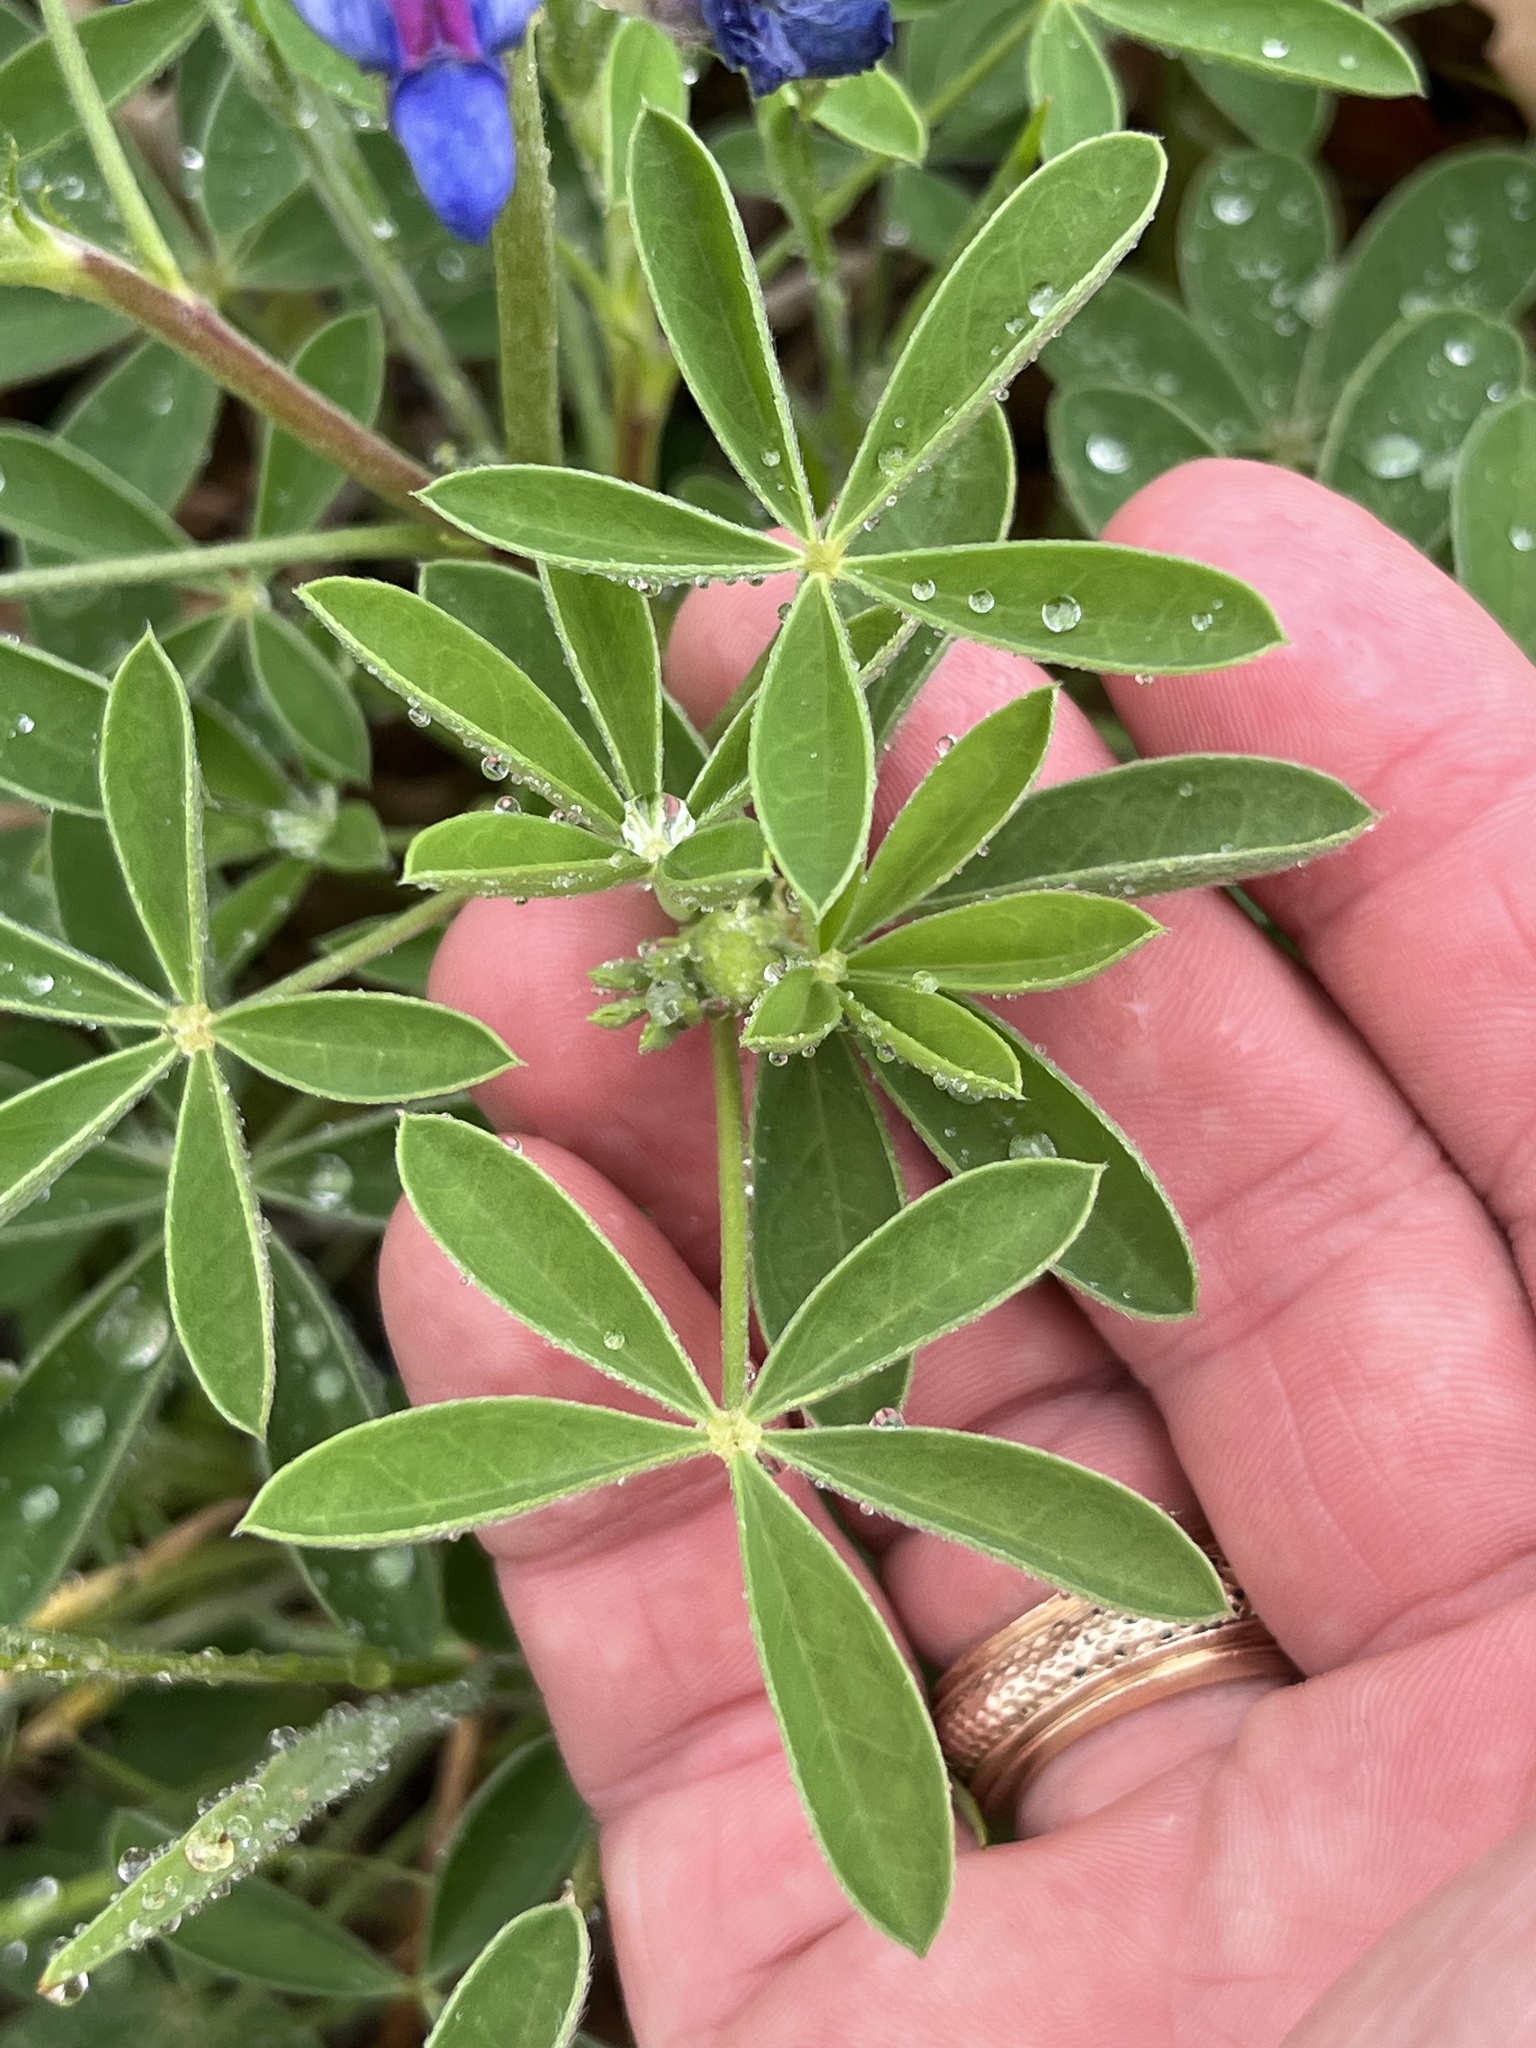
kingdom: Plantae
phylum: Tracheophyta
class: Magnoliopsida
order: Fabales
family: Fabaceae
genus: Lupinus
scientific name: Lupinus texensis
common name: Texas bluebonnet
